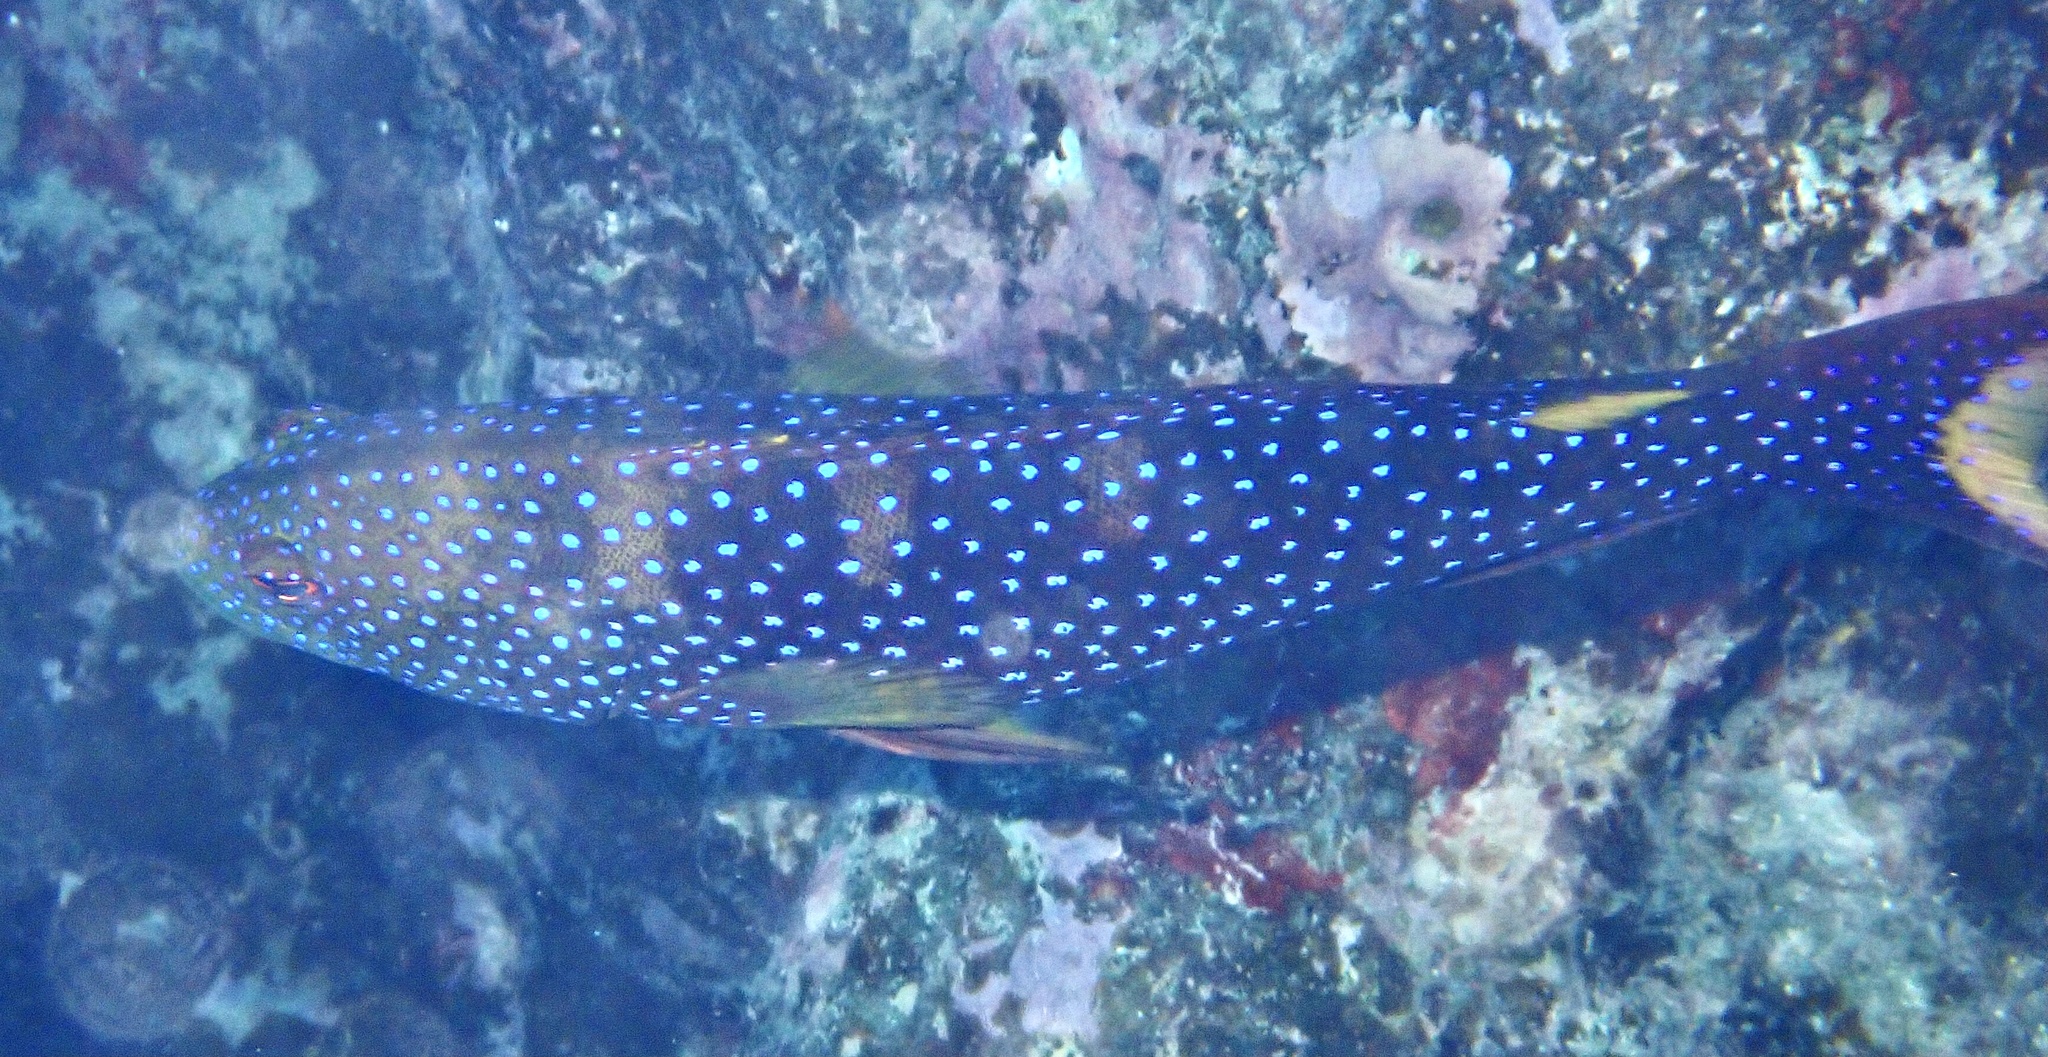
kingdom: Animalia
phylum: Chordata
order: Perciformes
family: Serranidae
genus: Variola
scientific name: Variola louti
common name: Yellow-edged lyretail
